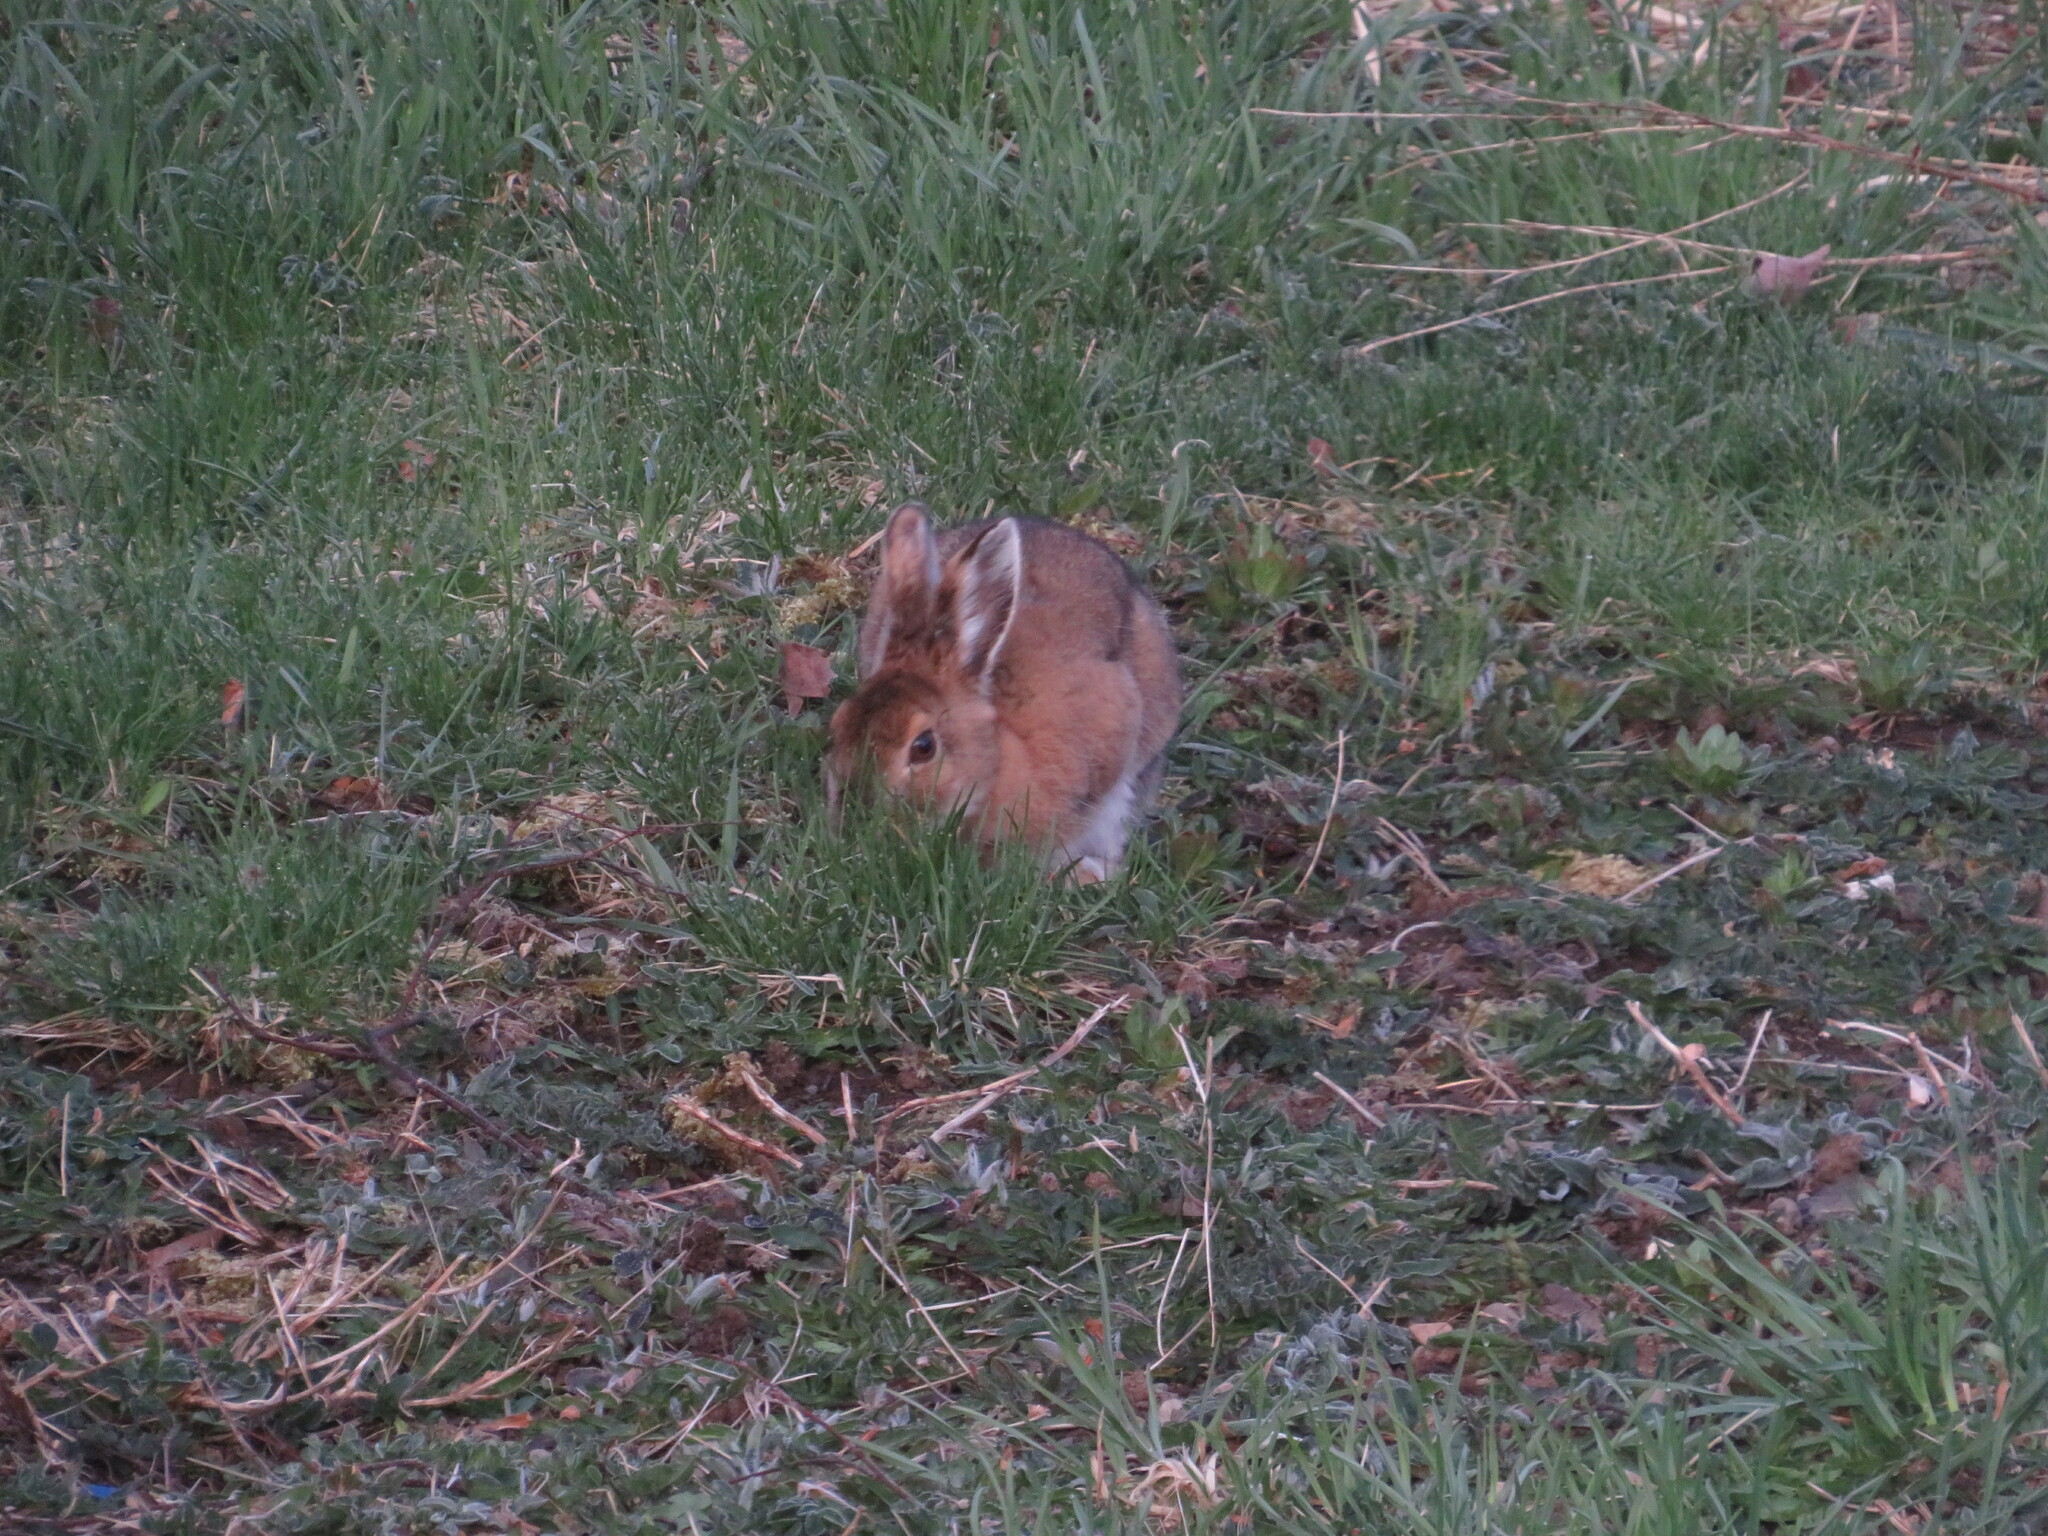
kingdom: Animalia
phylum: Chordata
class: Mammalia
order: Lagomorpha
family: Leporidae
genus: Lepus
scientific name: Lepus americanus
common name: Snowshoe hare
